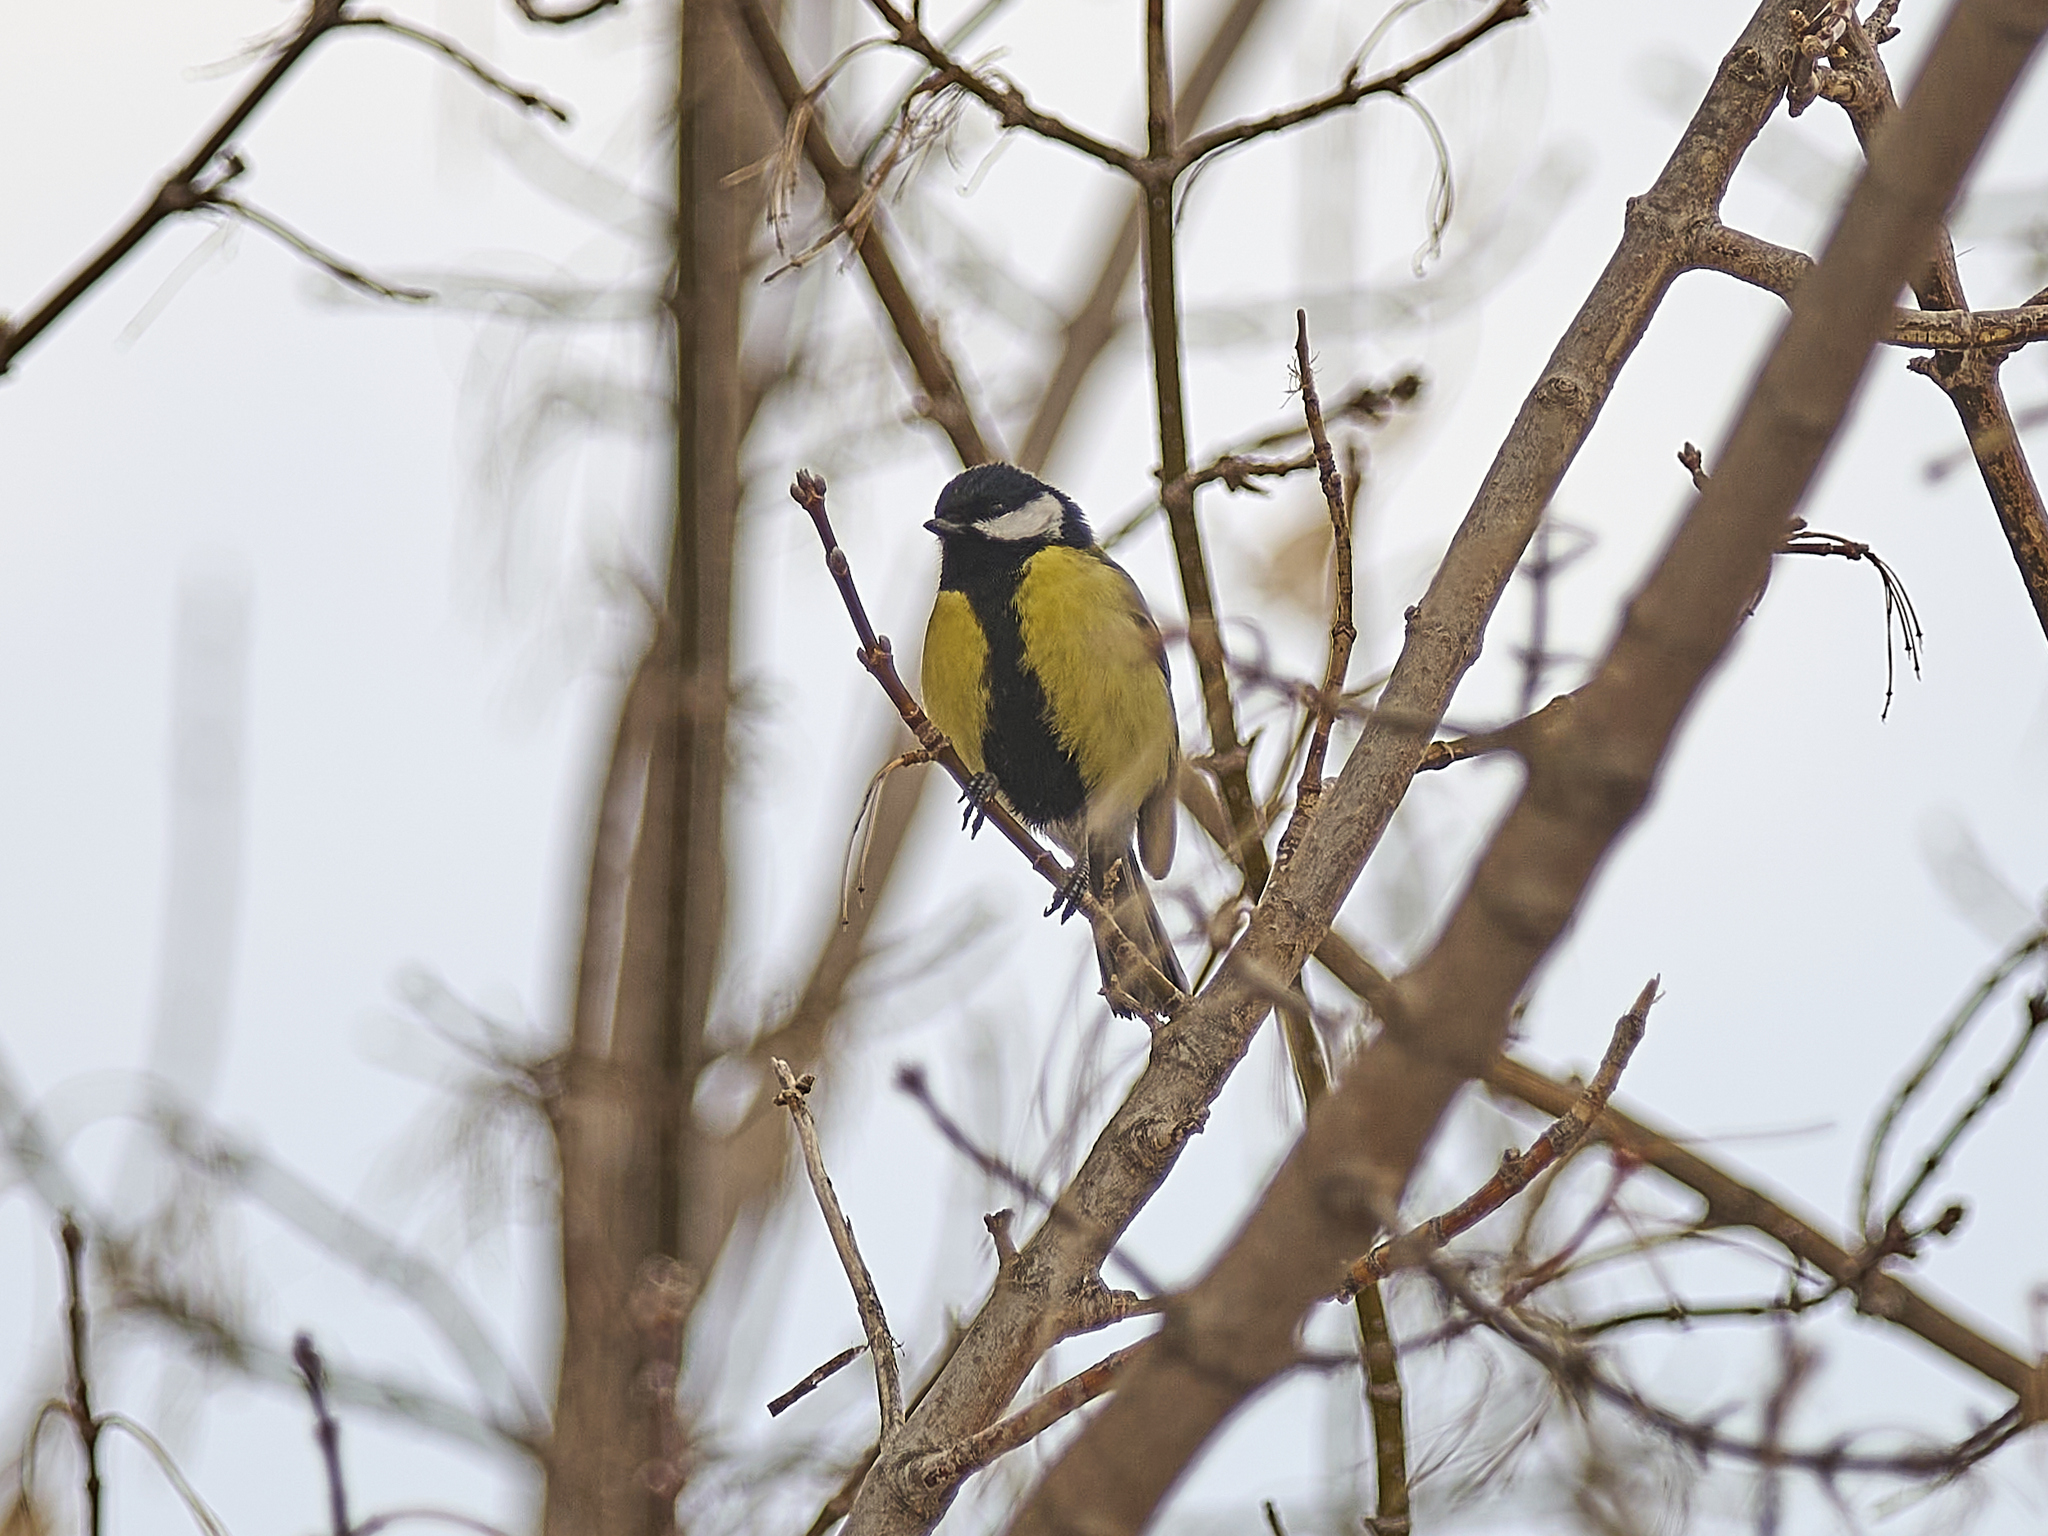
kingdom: Animalia
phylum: Chordata
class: Aves
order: Passeriformes
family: Paridae
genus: Parus
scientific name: Parus major
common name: Great tit
